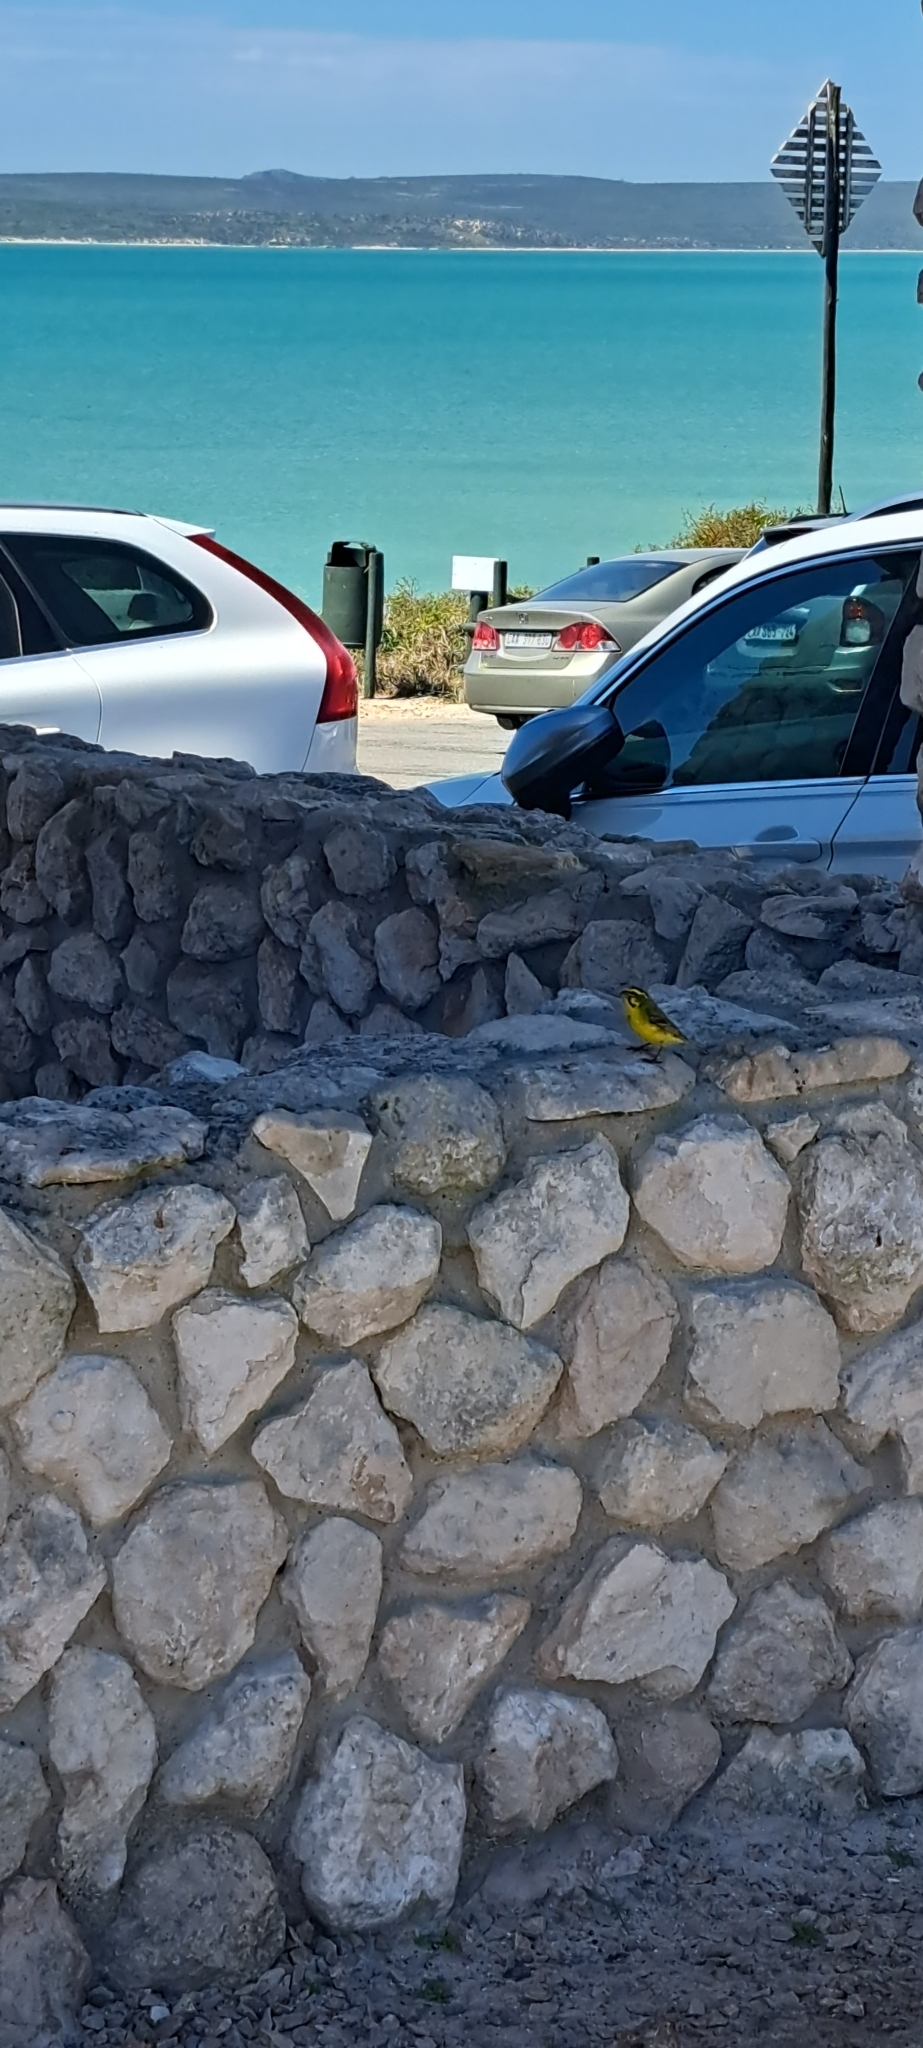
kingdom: Animalia
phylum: Chordata
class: Aves
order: Passeriformes
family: Fringillidae
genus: Crithagra
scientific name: Crithagra flaviventris
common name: Yellow canary
